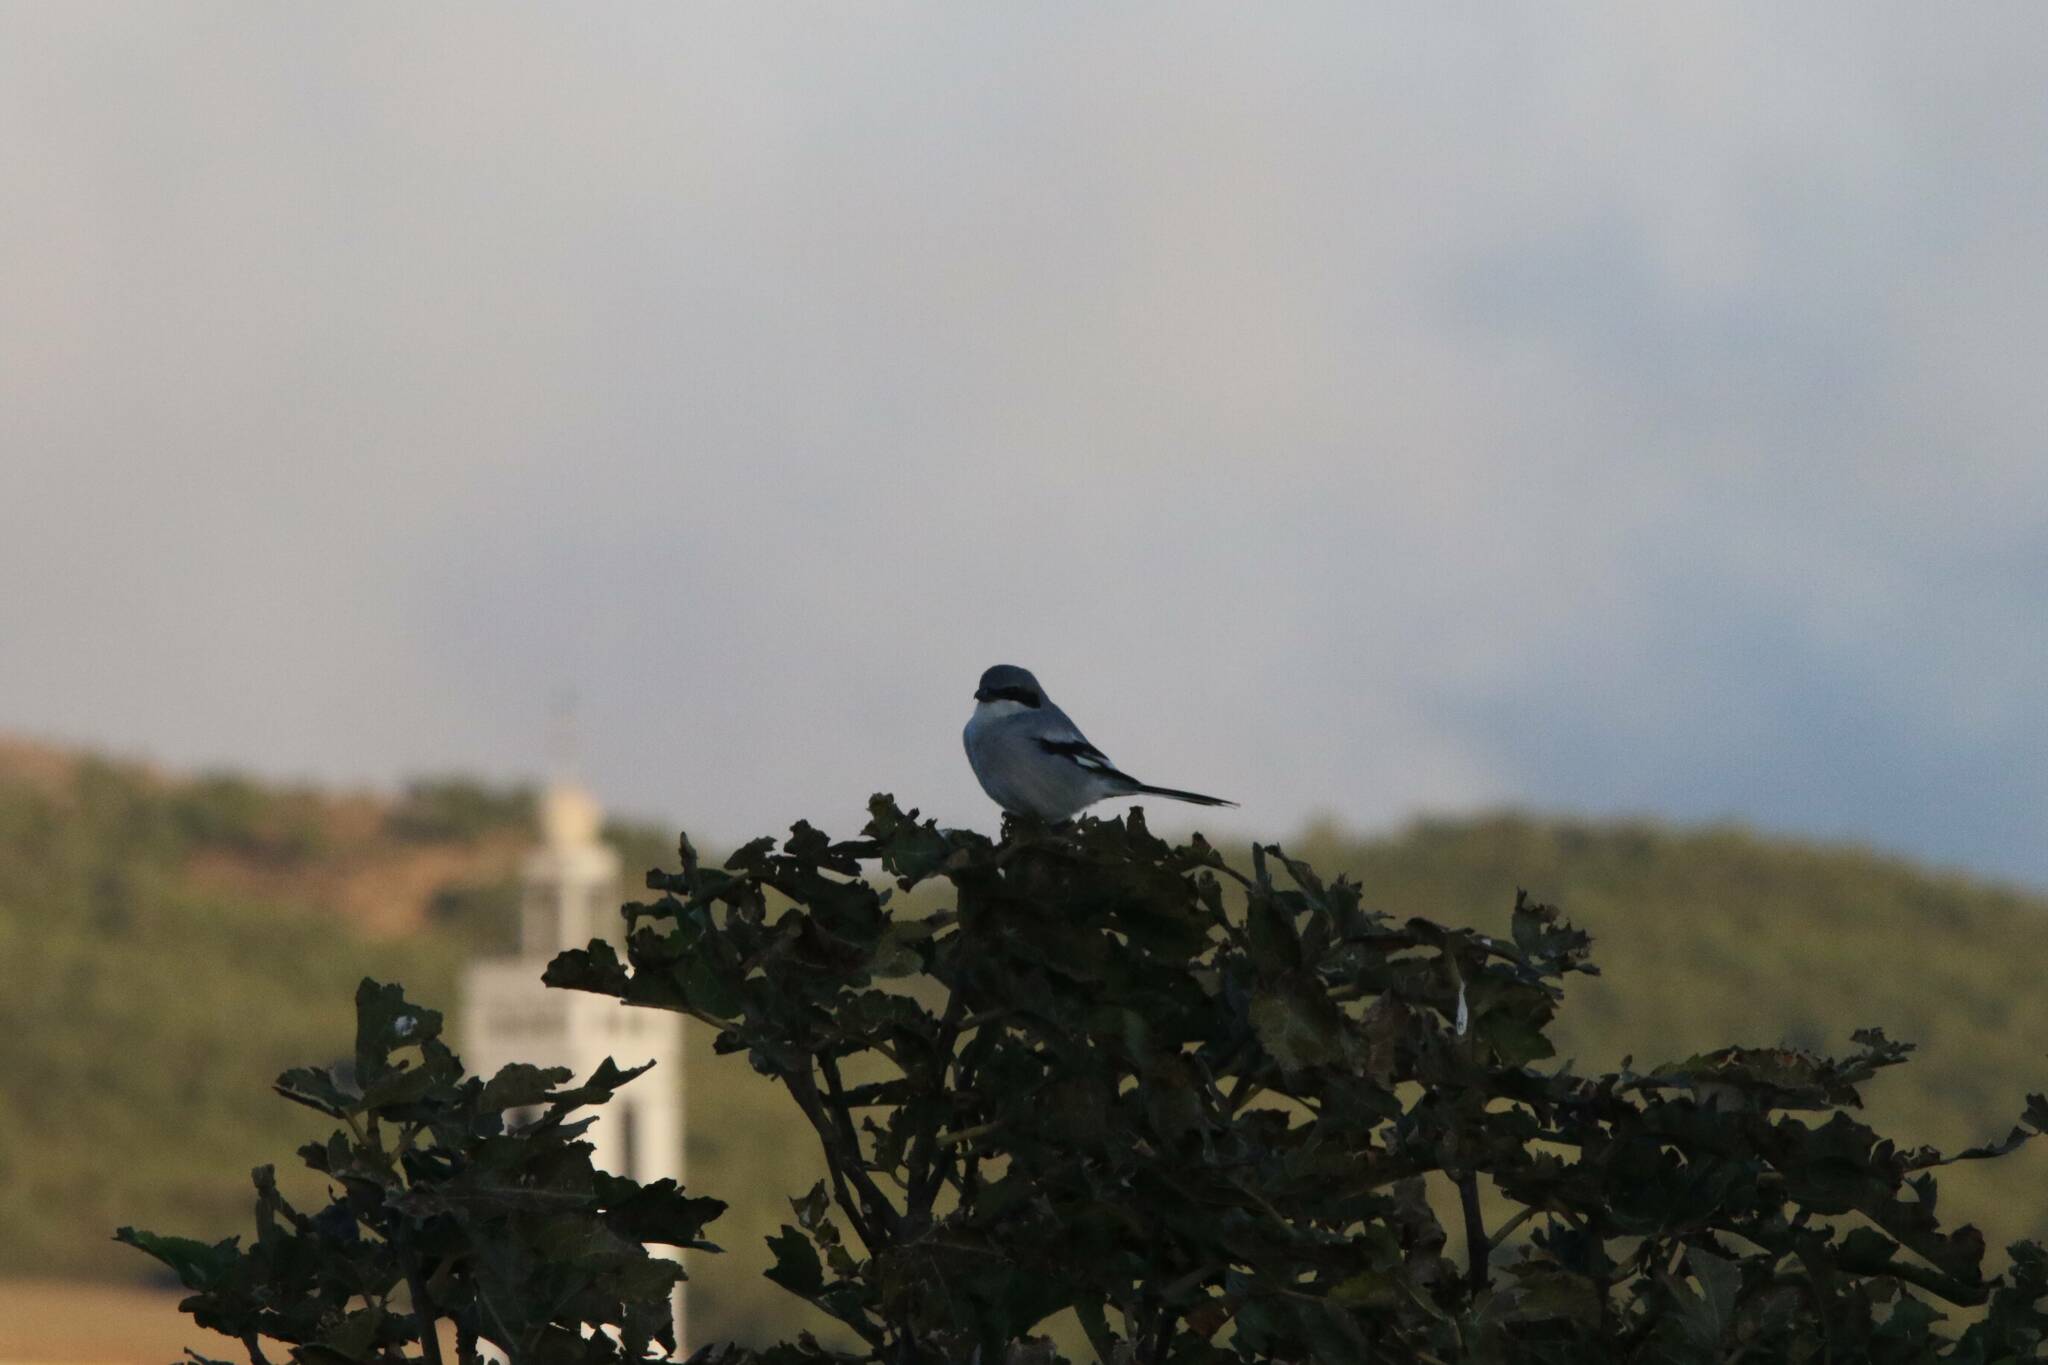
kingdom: Animalia
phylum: Chordata
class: Aves
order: Passeriformes
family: Laniidae
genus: Lanius
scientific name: Lanius excubitor
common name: Great grey shrike
